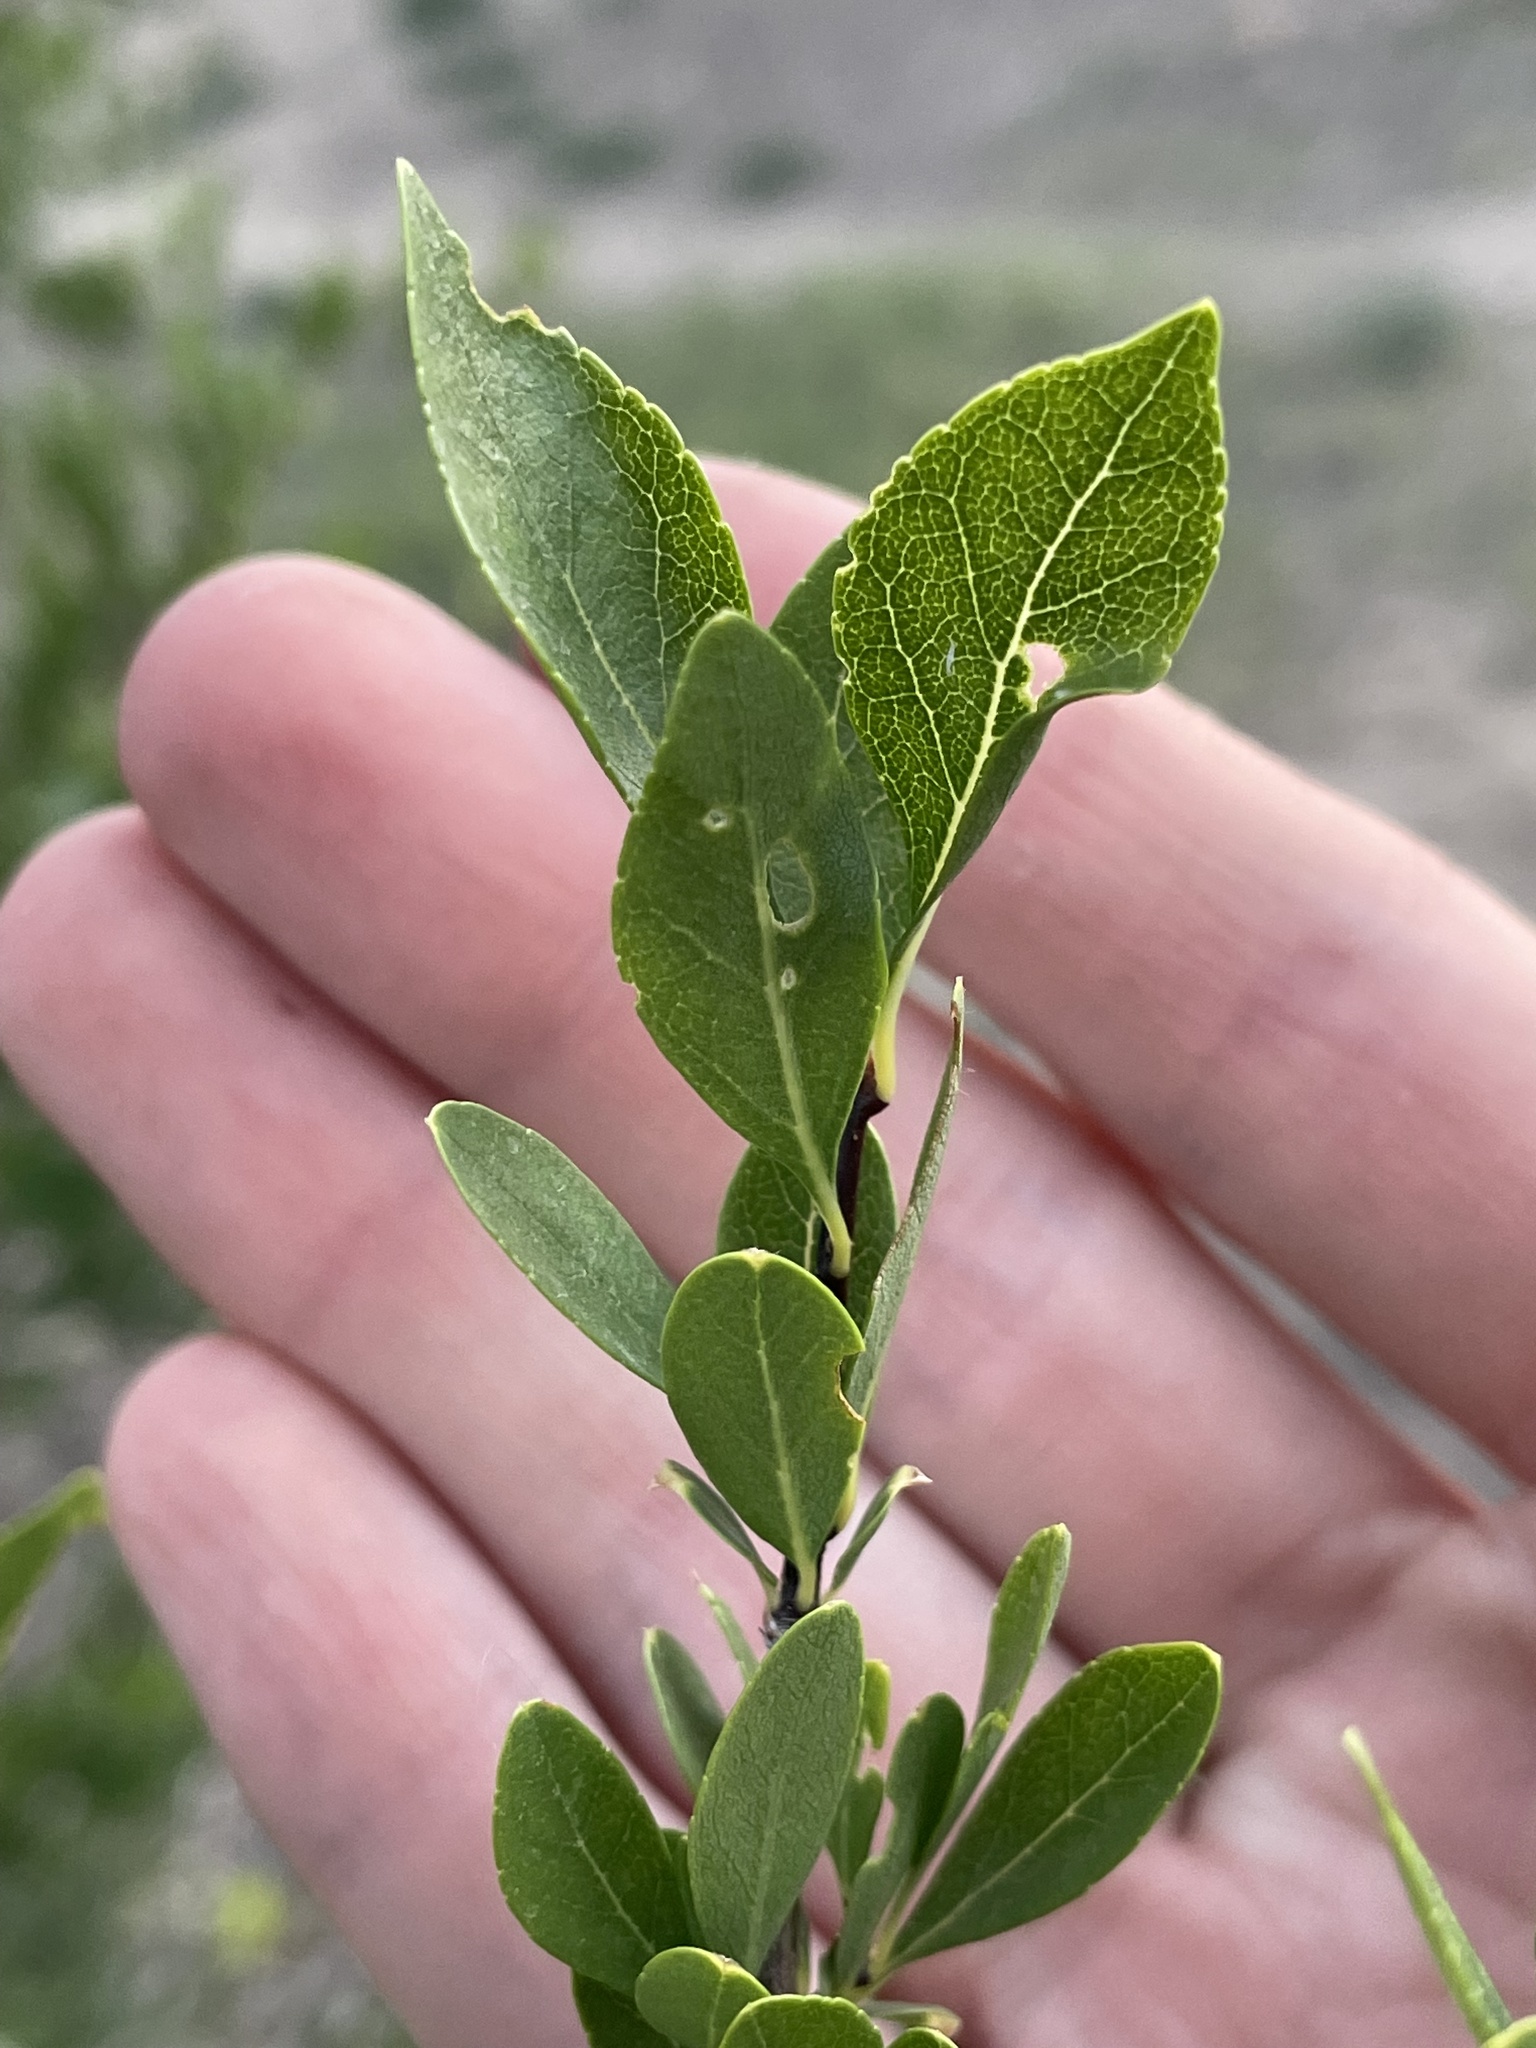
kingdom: Plantae
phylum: Tracheophyta
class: Magnoliopsida
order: Lamiales
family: Oleaceae
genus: Forestiera
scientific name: Forestiera pubescens
